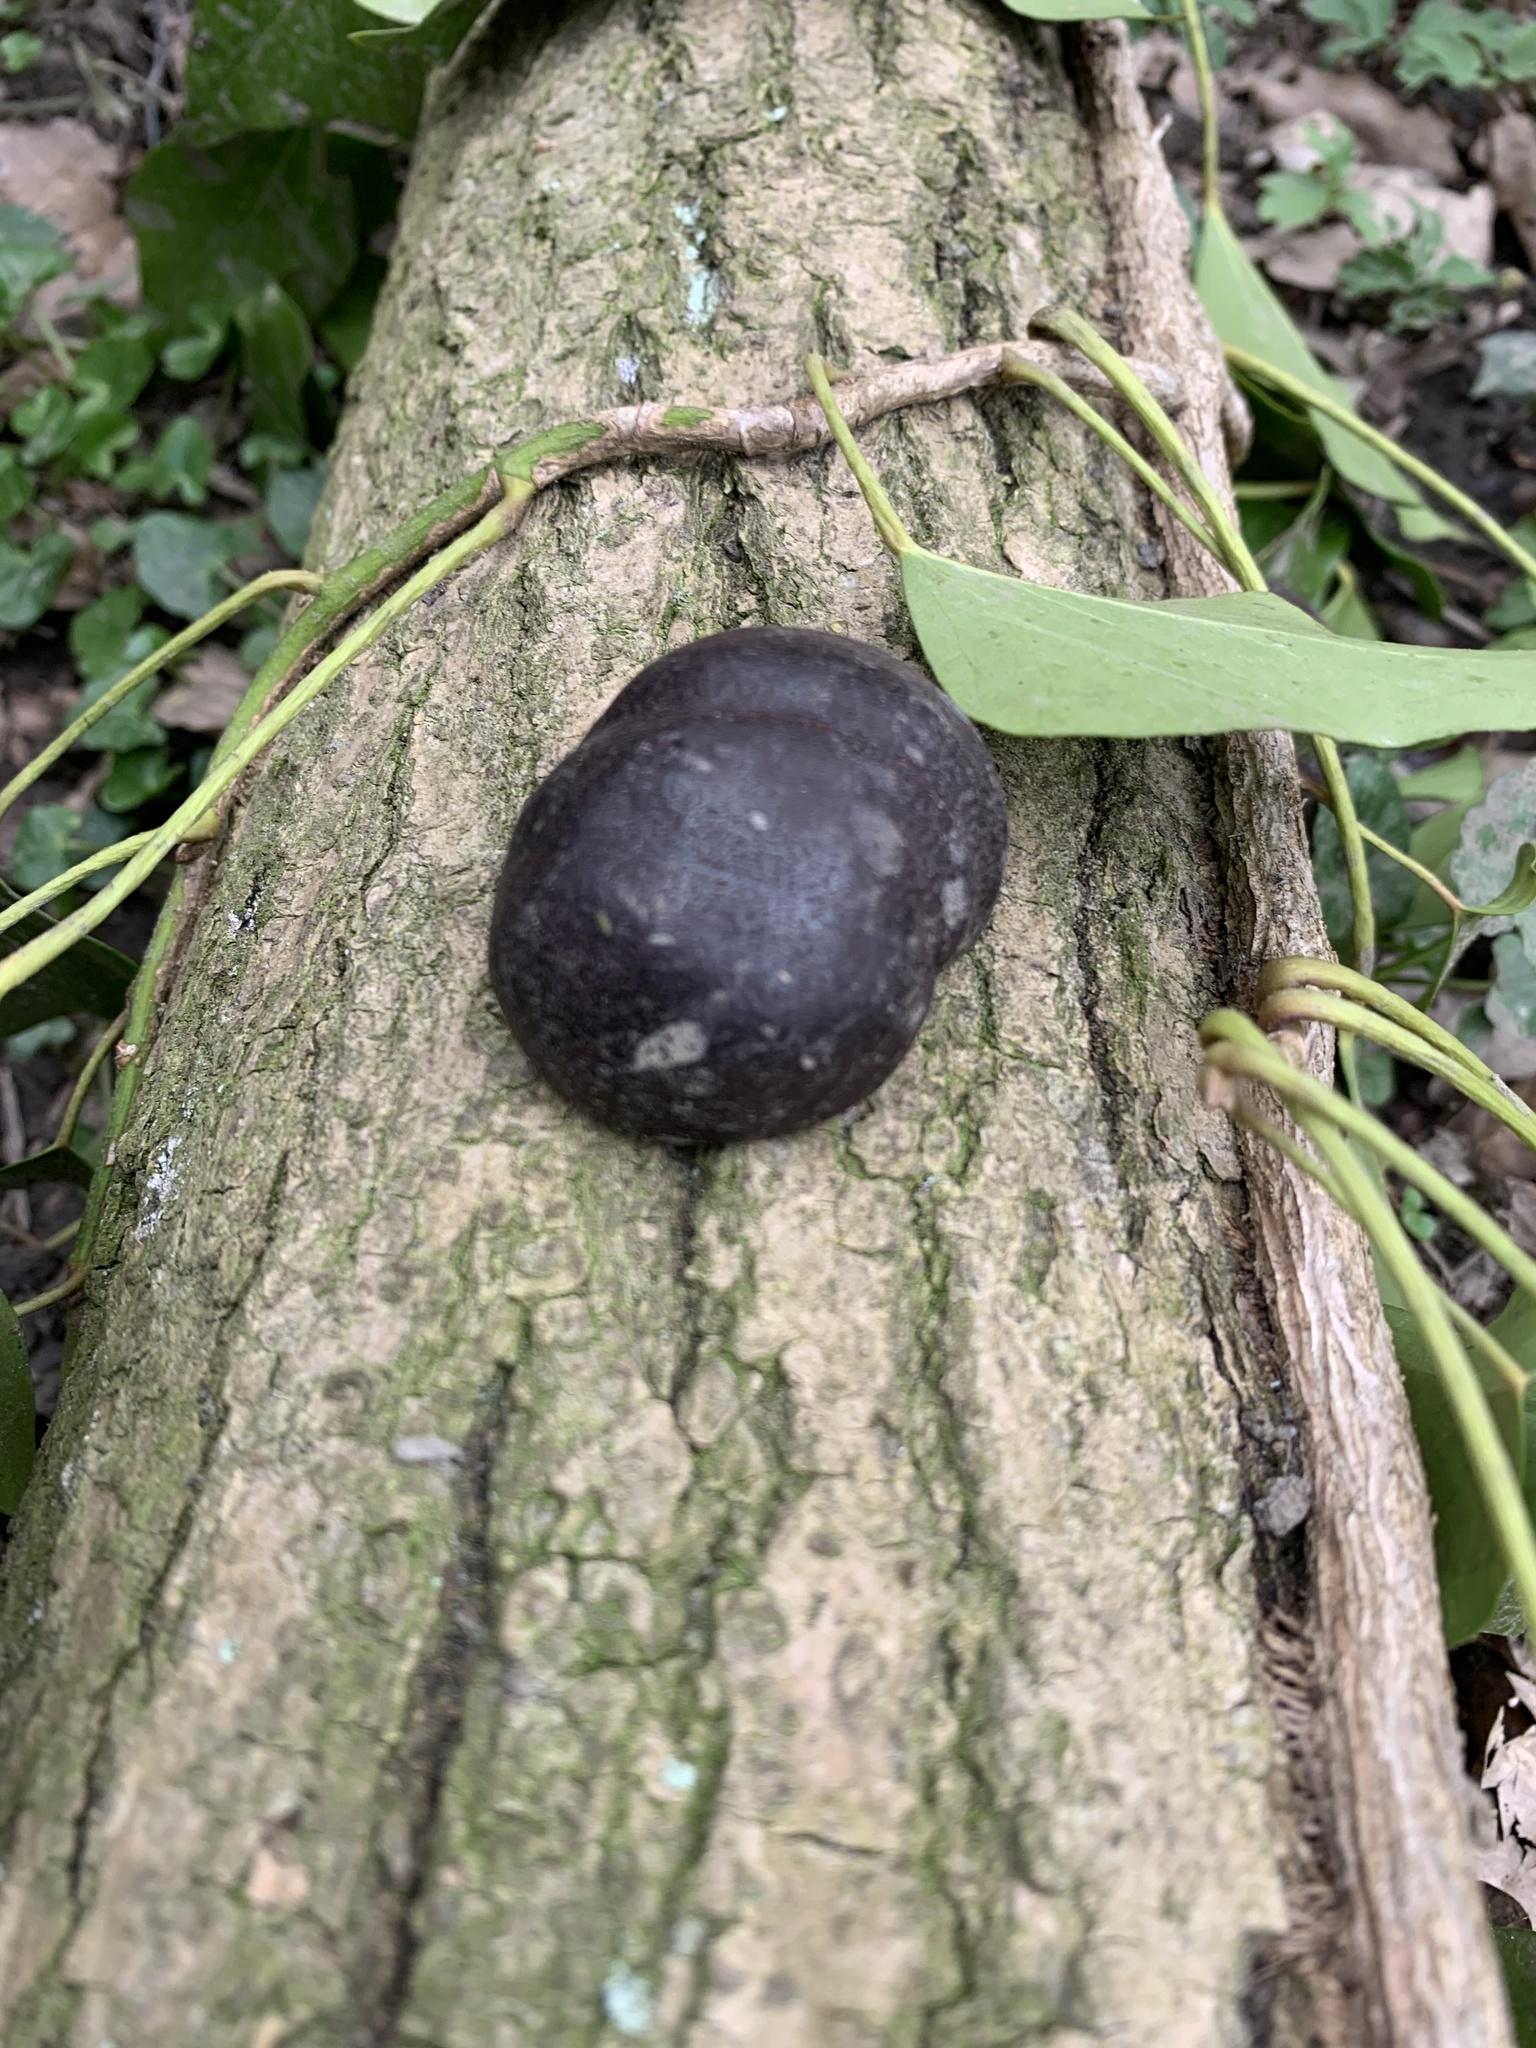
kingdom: Fungi
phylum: Ascomycota
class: Sordariomycetes
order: Xylariales
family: Hypoxylaceae
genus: Daldinia
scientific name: Daldinia concentrica
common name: Cramp balls
